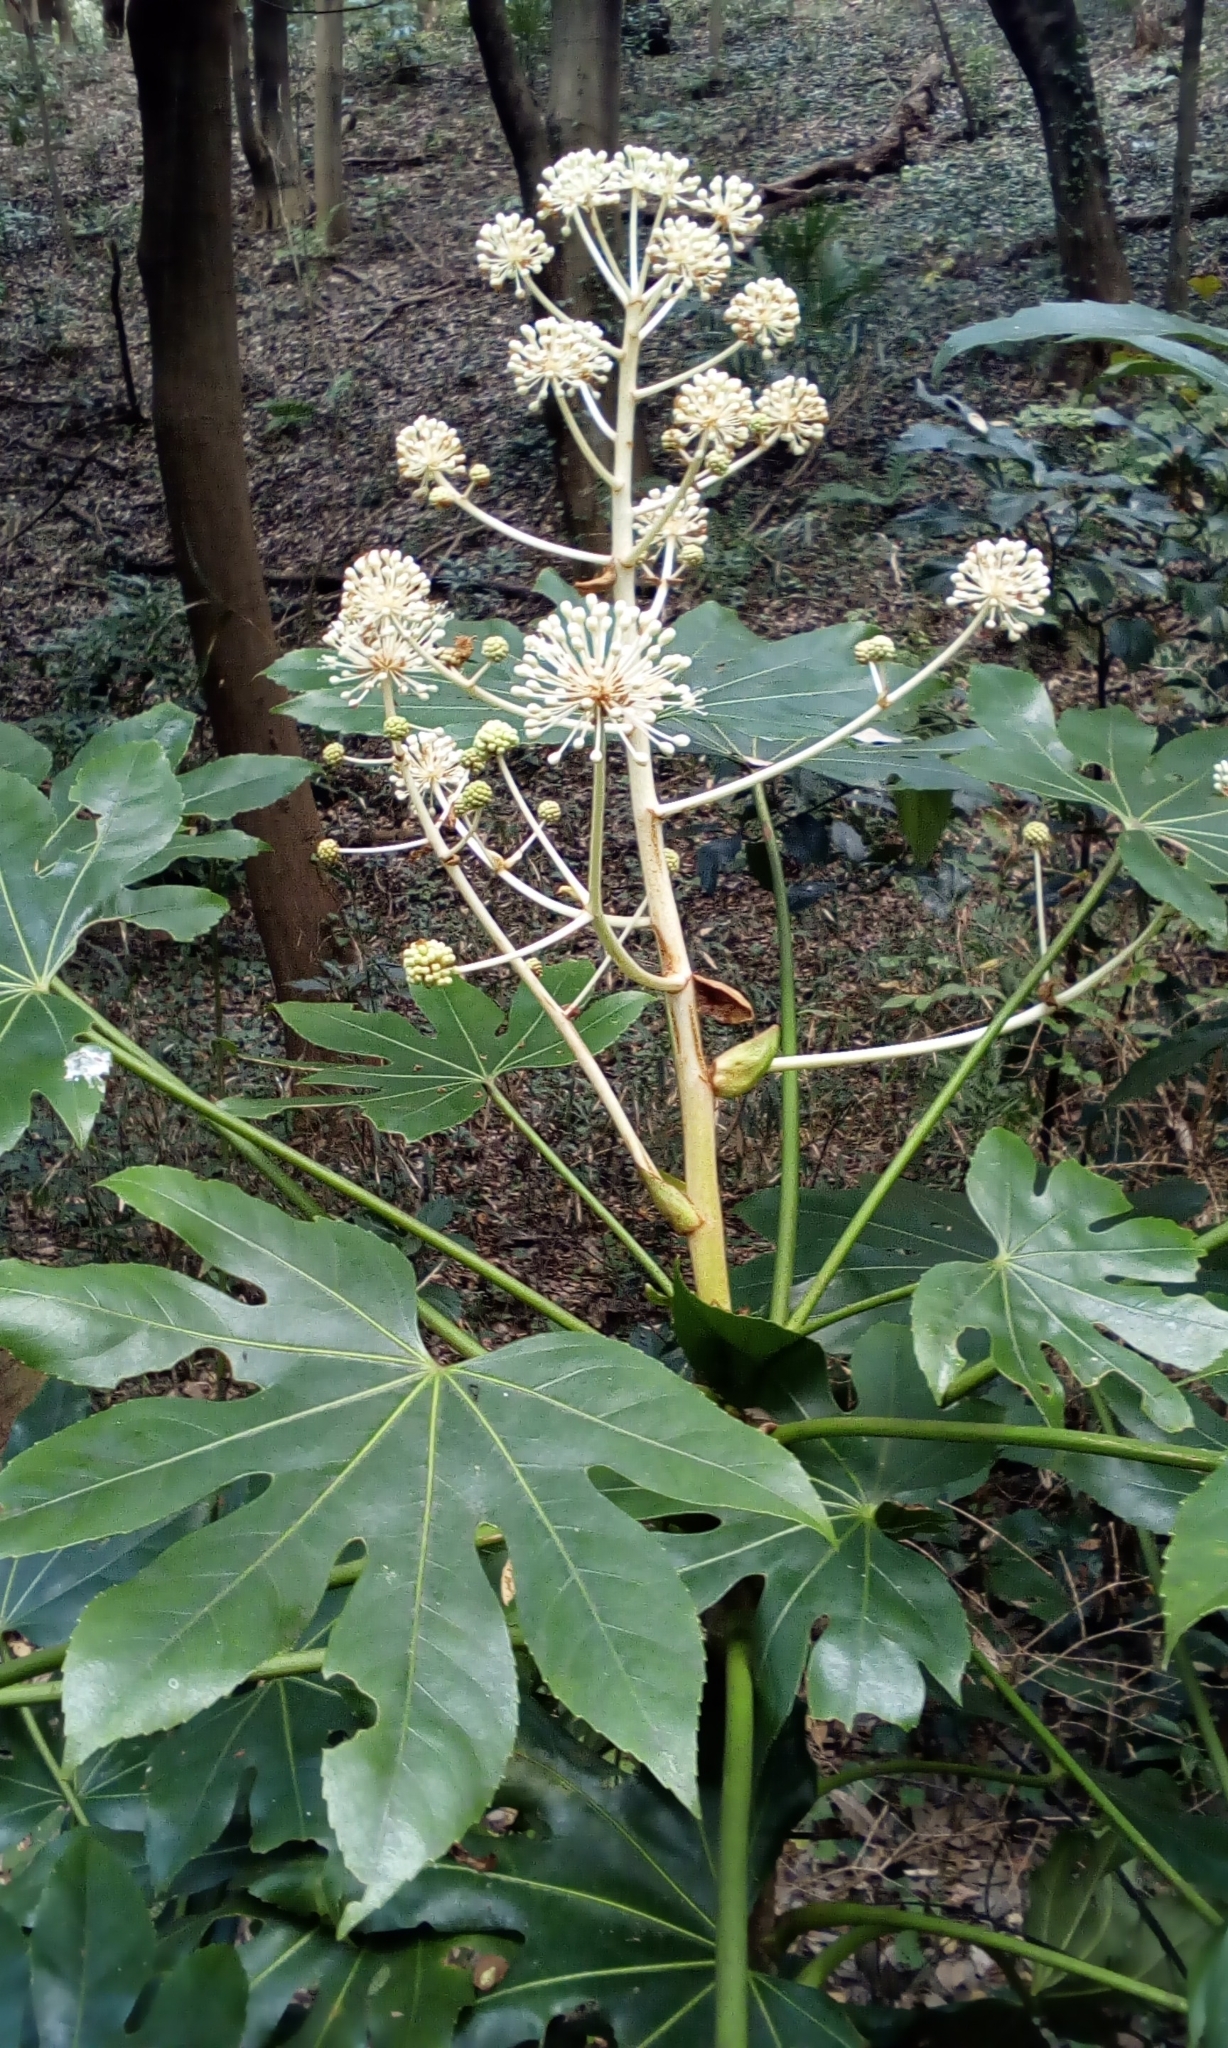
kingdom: Plantae
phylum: Tracheophyta
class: Magnoliopsida
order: Apiales
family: Araliaceae
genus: Fatsia
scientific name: Fatsia japonica
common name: Fatsia
